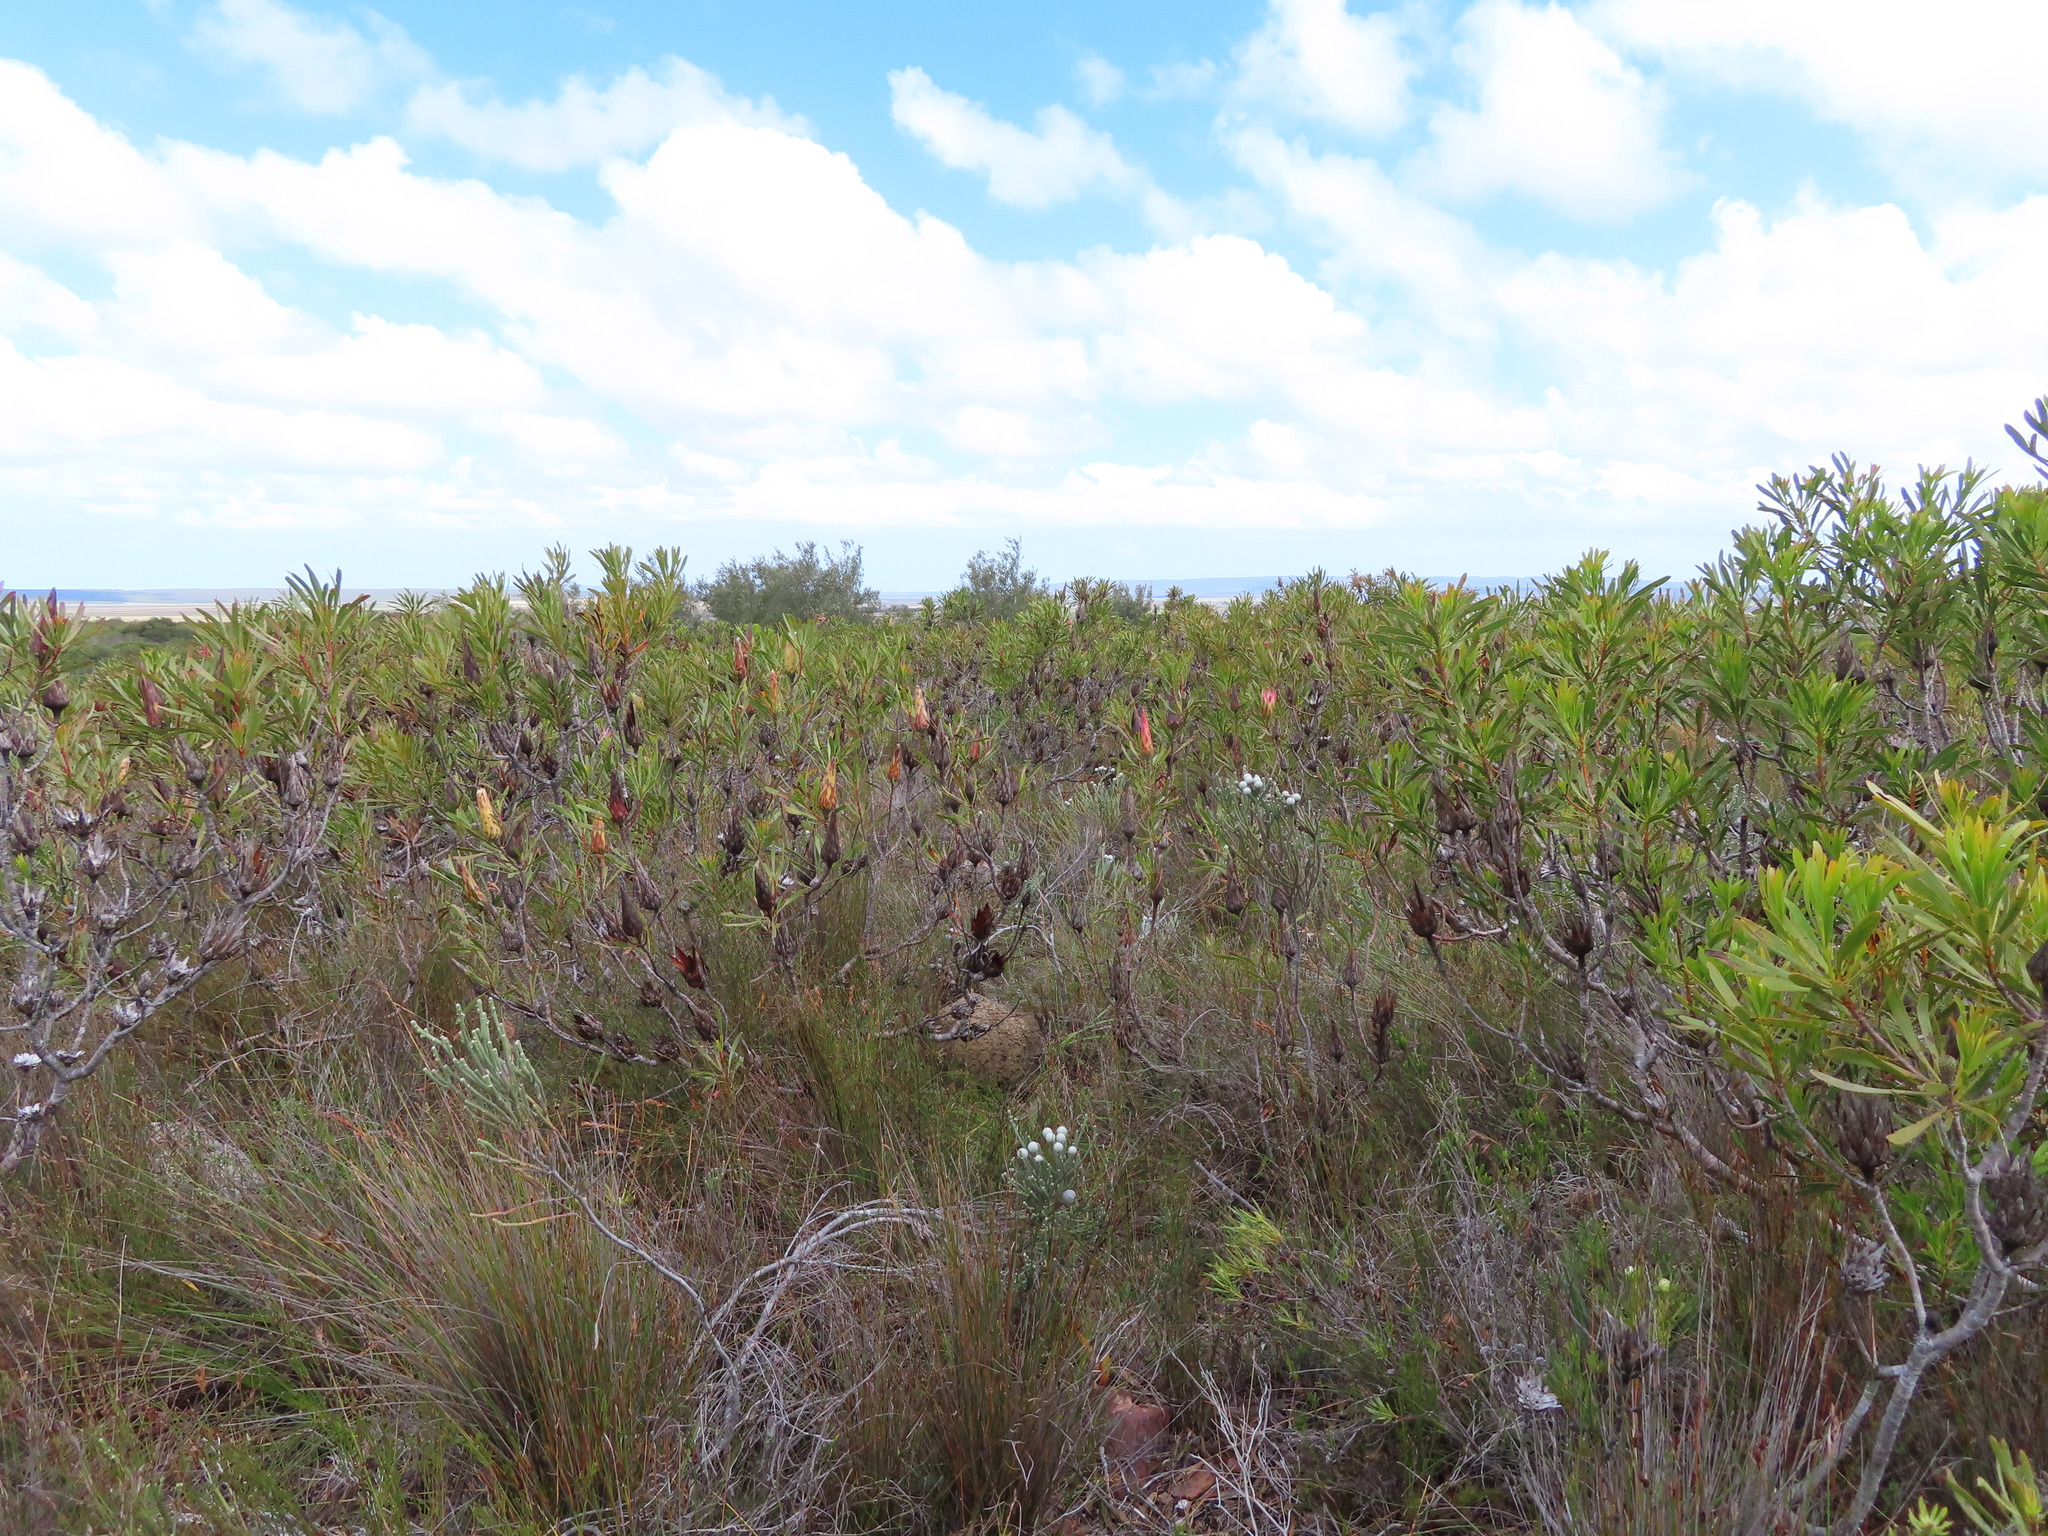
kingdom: Plantae
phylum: Tracheophyta
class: Magnoliopsida
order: Proteales
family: Proteaceae
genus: Protea
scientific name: Protea repens
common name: Sugarbush
